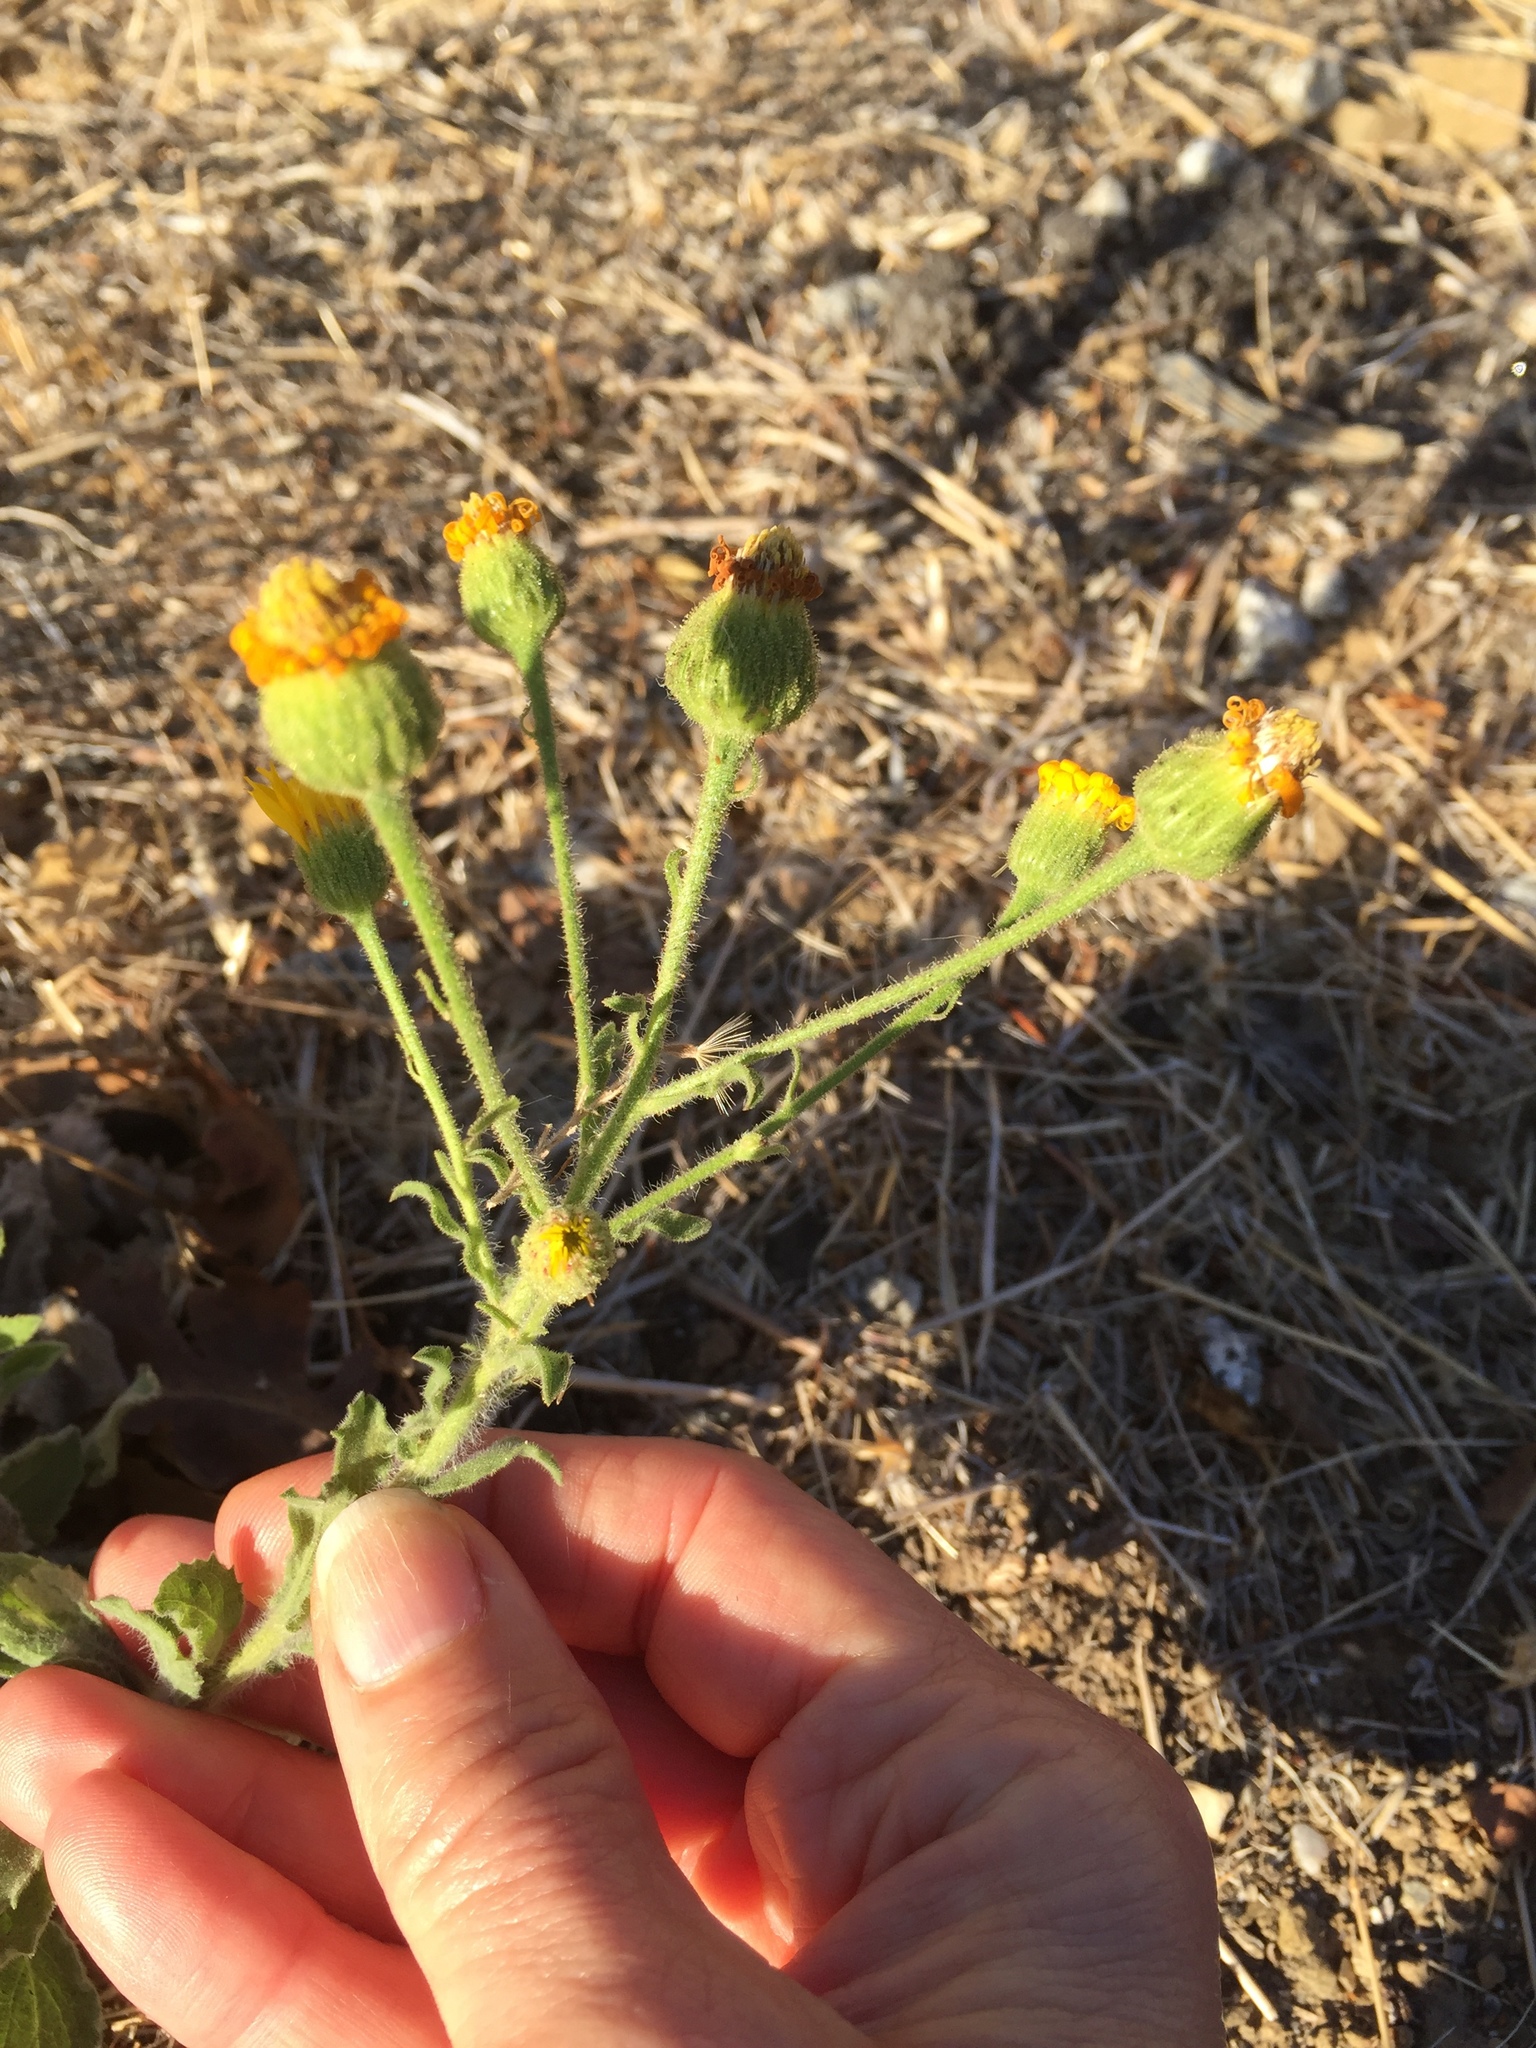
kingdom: Plantae
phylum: Tracheophyta
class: Magnoliopsida
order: Asterales
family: Asteraceae
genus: Heterotheca
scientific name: Heterotheca grandiflora
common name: Telegraphweed
